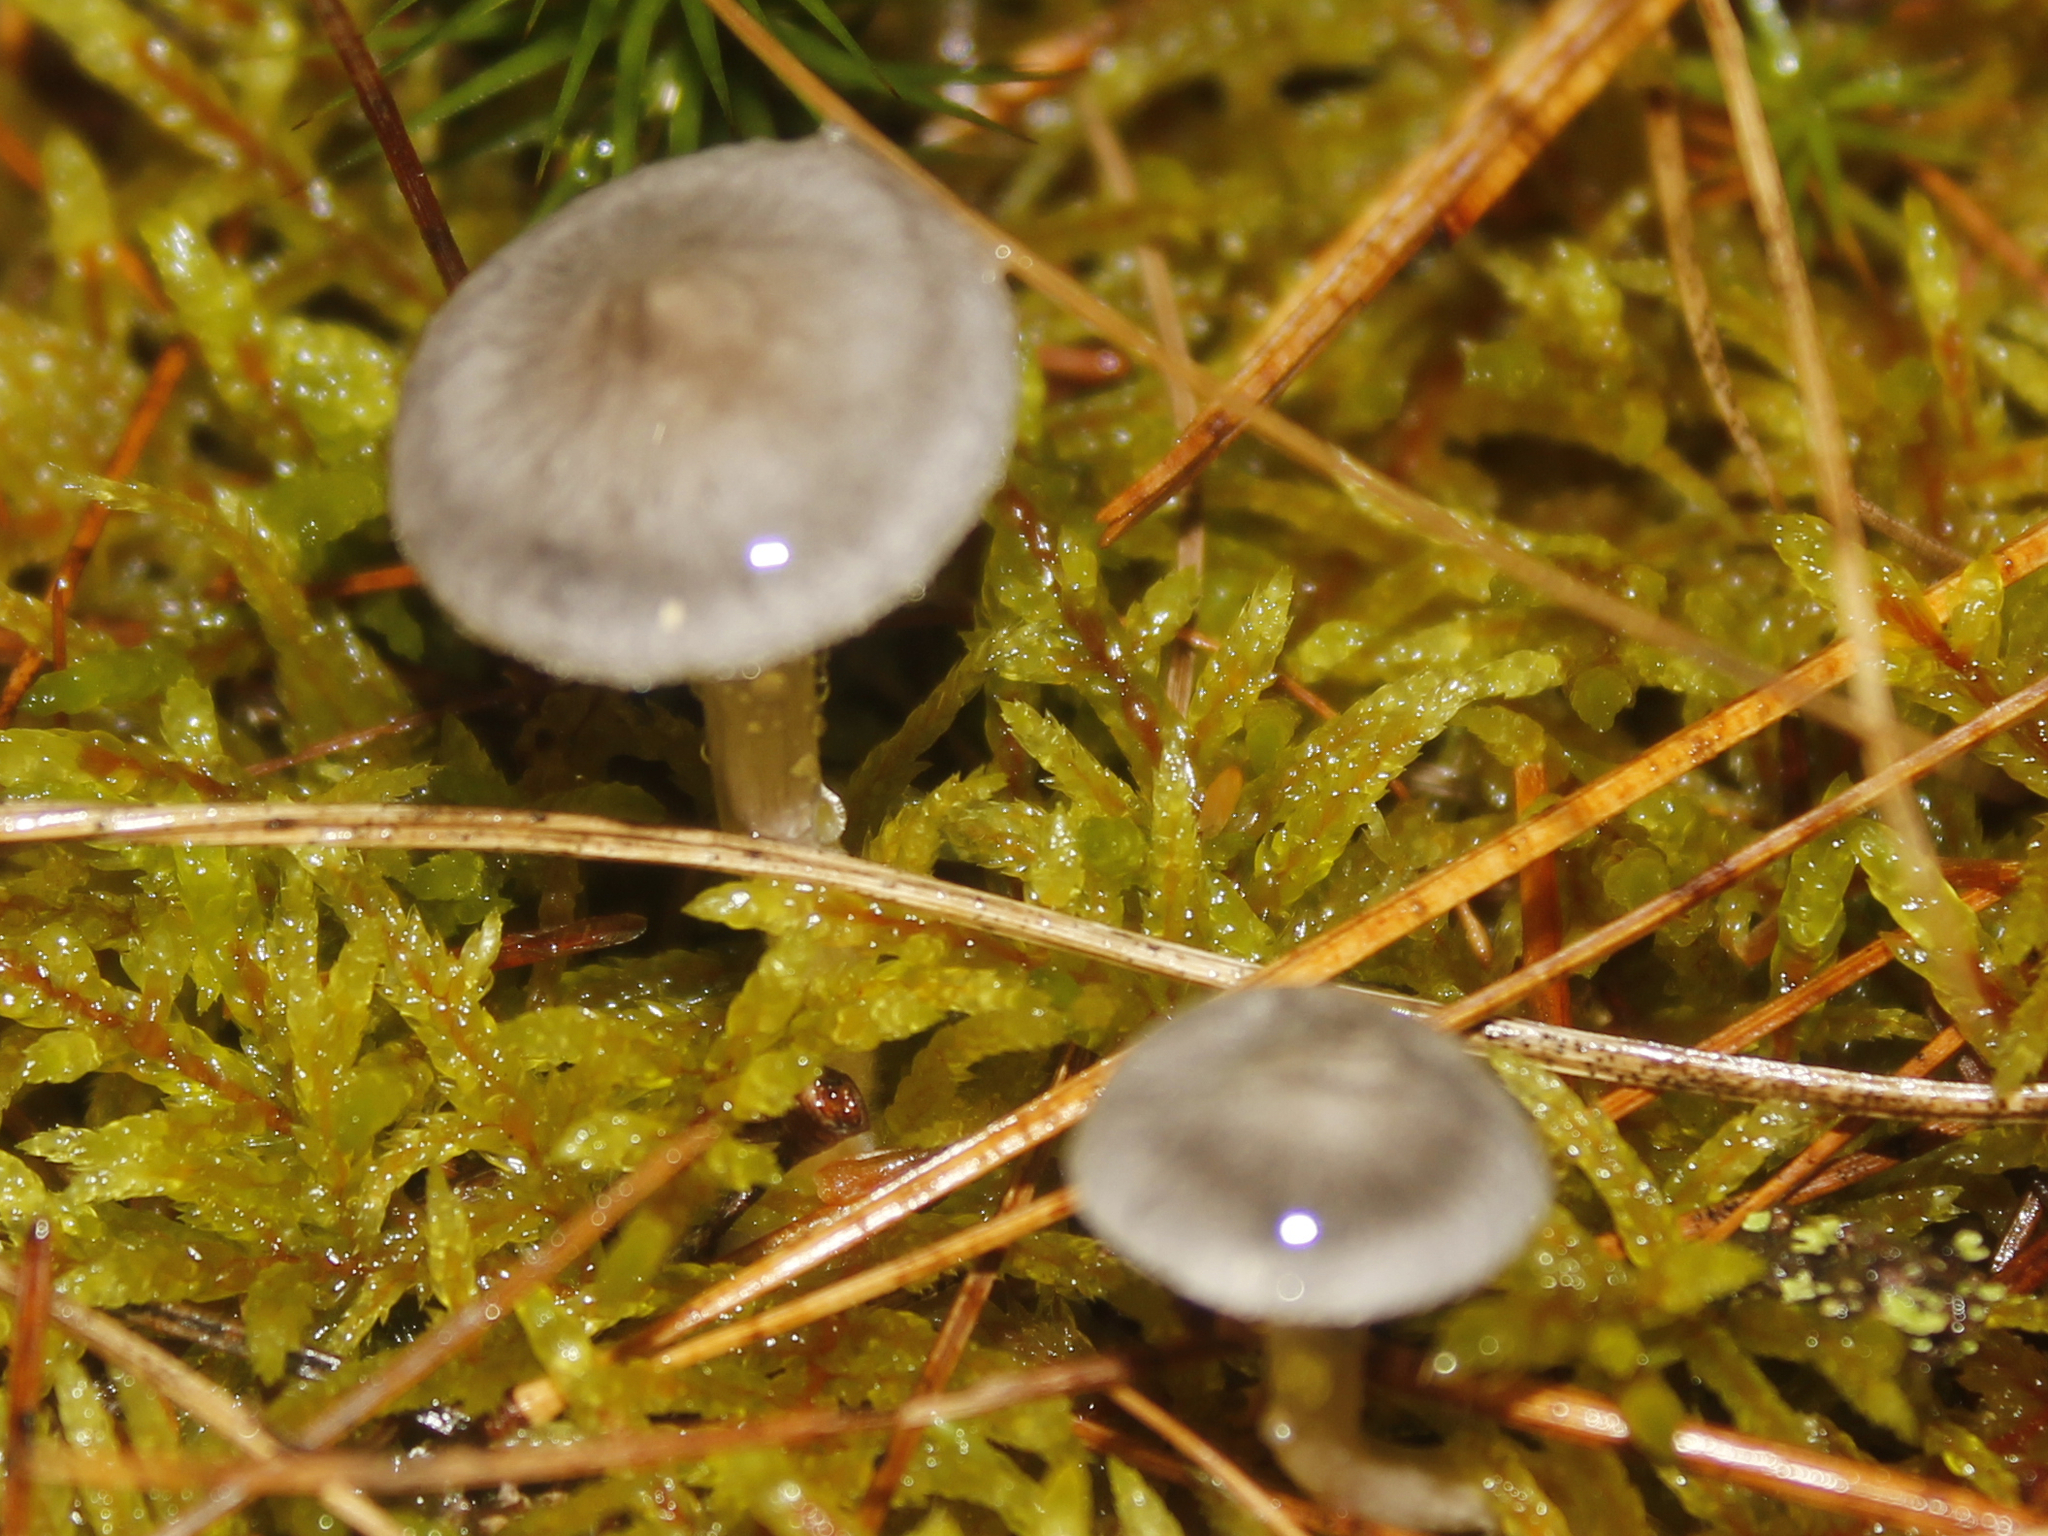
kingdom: Fungi
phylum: Basidiomycota
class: Agaricomycetes
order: Agaricales
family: Hygrophoraceae
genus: Cantharellula
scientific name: Cantharellula umbonata
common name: The humpback
